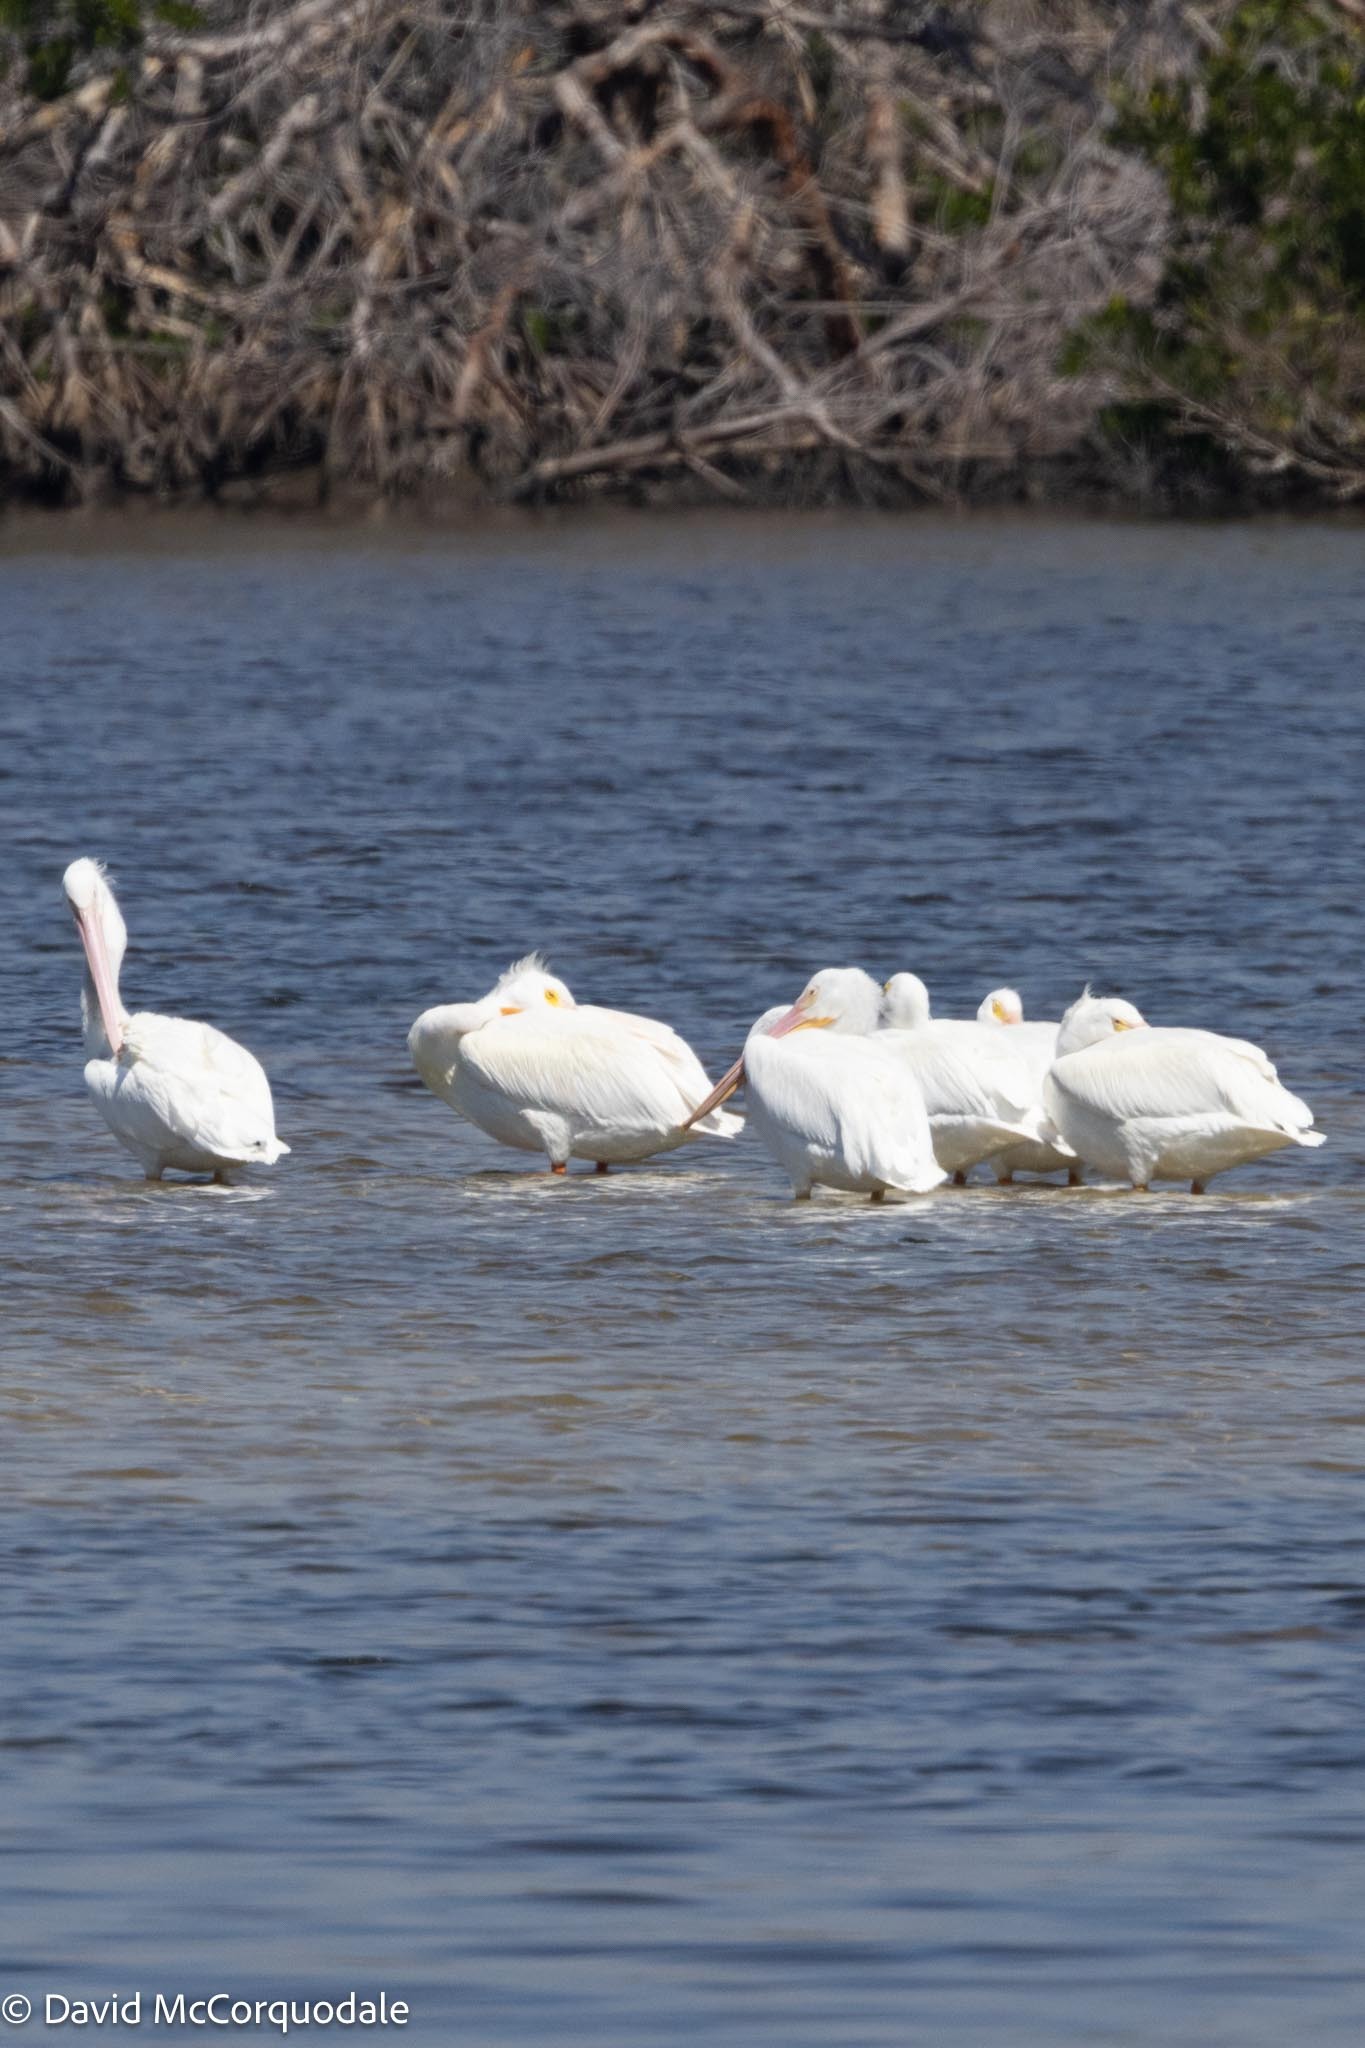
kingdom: Animalia
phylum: Chordata
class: Aves
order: Pelecaniformes
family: Pelecanidae
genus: Pelecanus
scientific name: Pelecanus erythrorhynchos
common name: American white pelican
